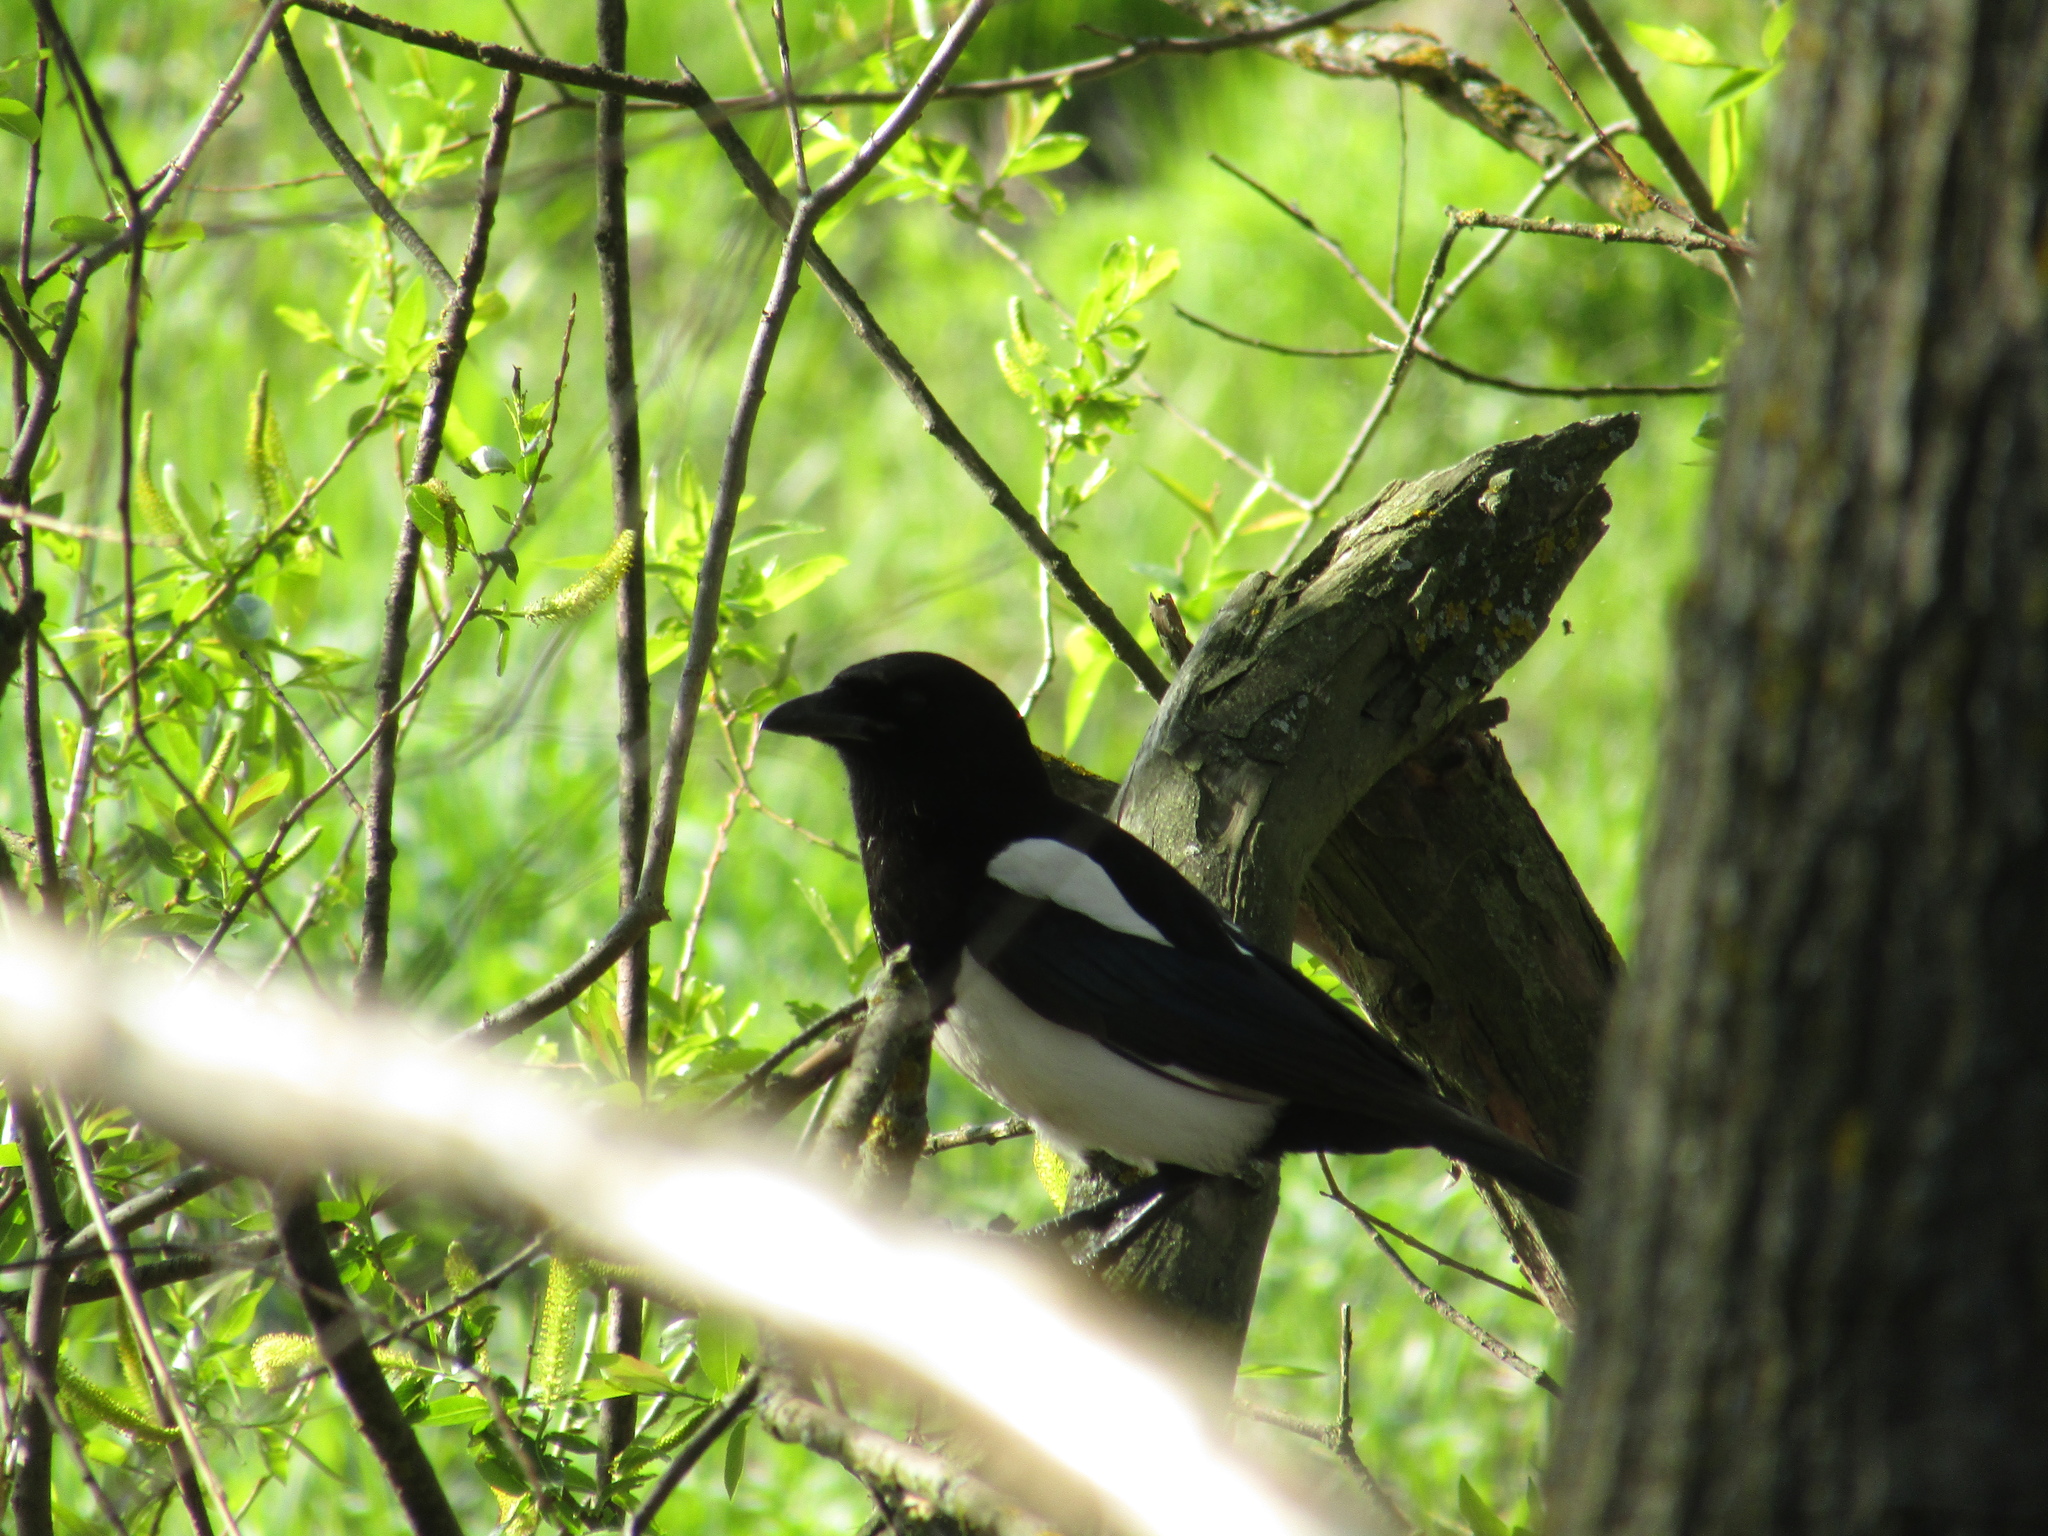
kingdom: Animalia
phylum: Chordata
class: Aves
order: Passeriformes
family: Corvidae
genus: Pica
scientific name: Pica pica
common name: Eurasian magpie
